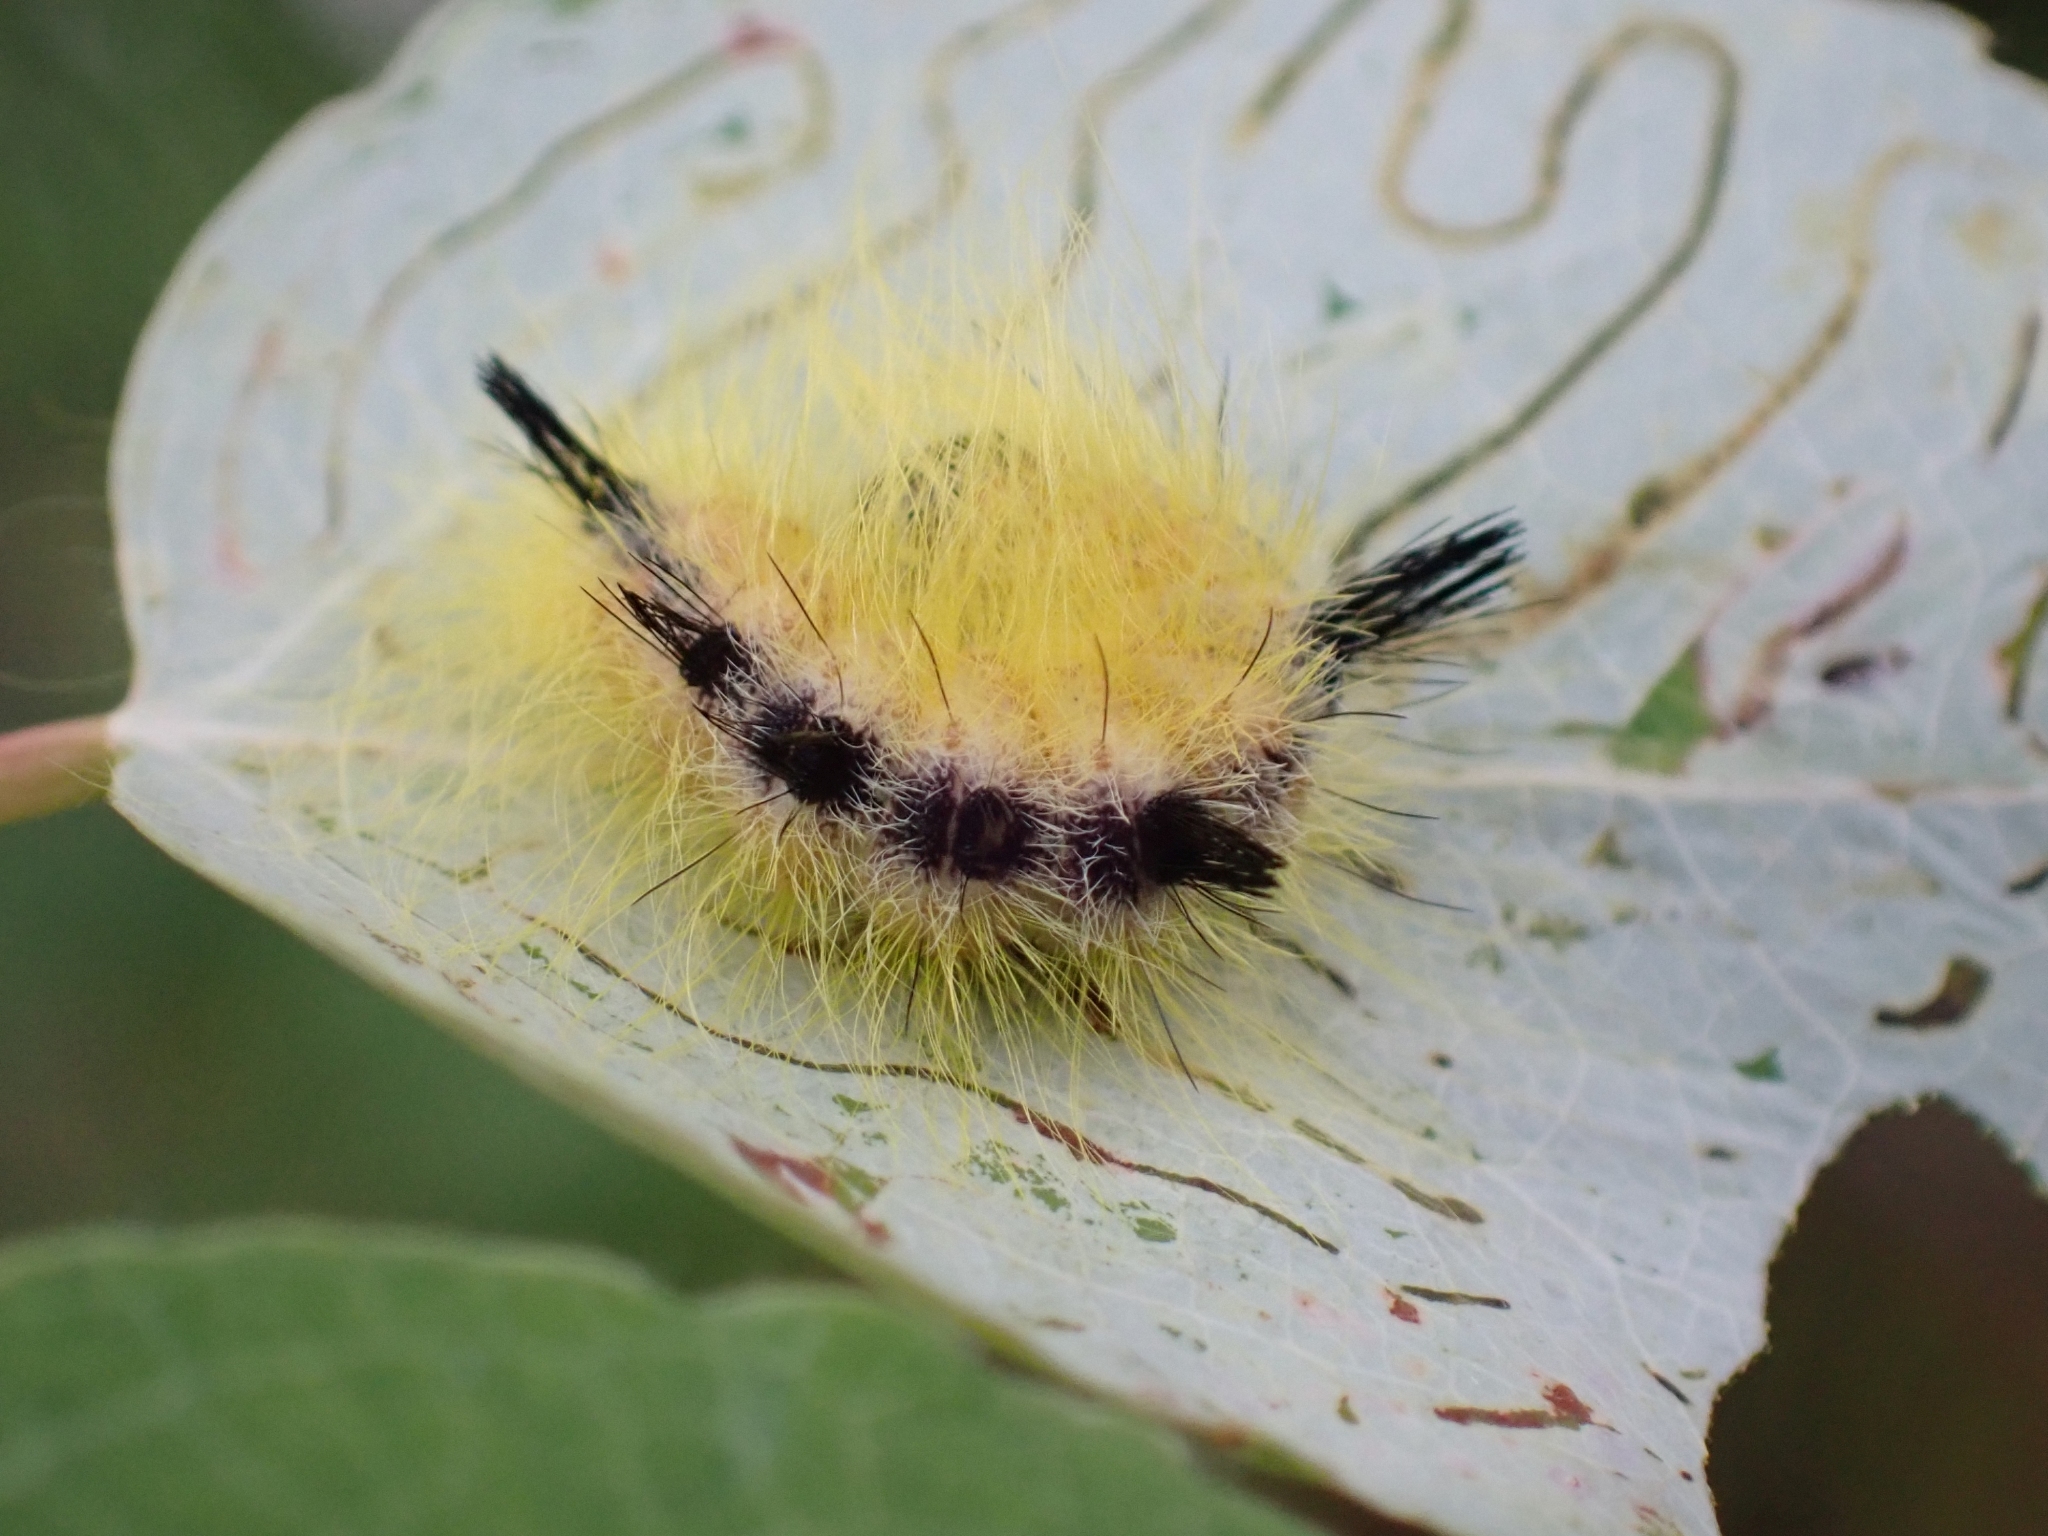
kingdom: Animalia
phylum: Arthropoda
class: Insecta
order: Lepidoptera
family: Noctuidae
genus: Acronicta
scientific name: Acronicta lepusculina
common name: Cottonwood dagger
